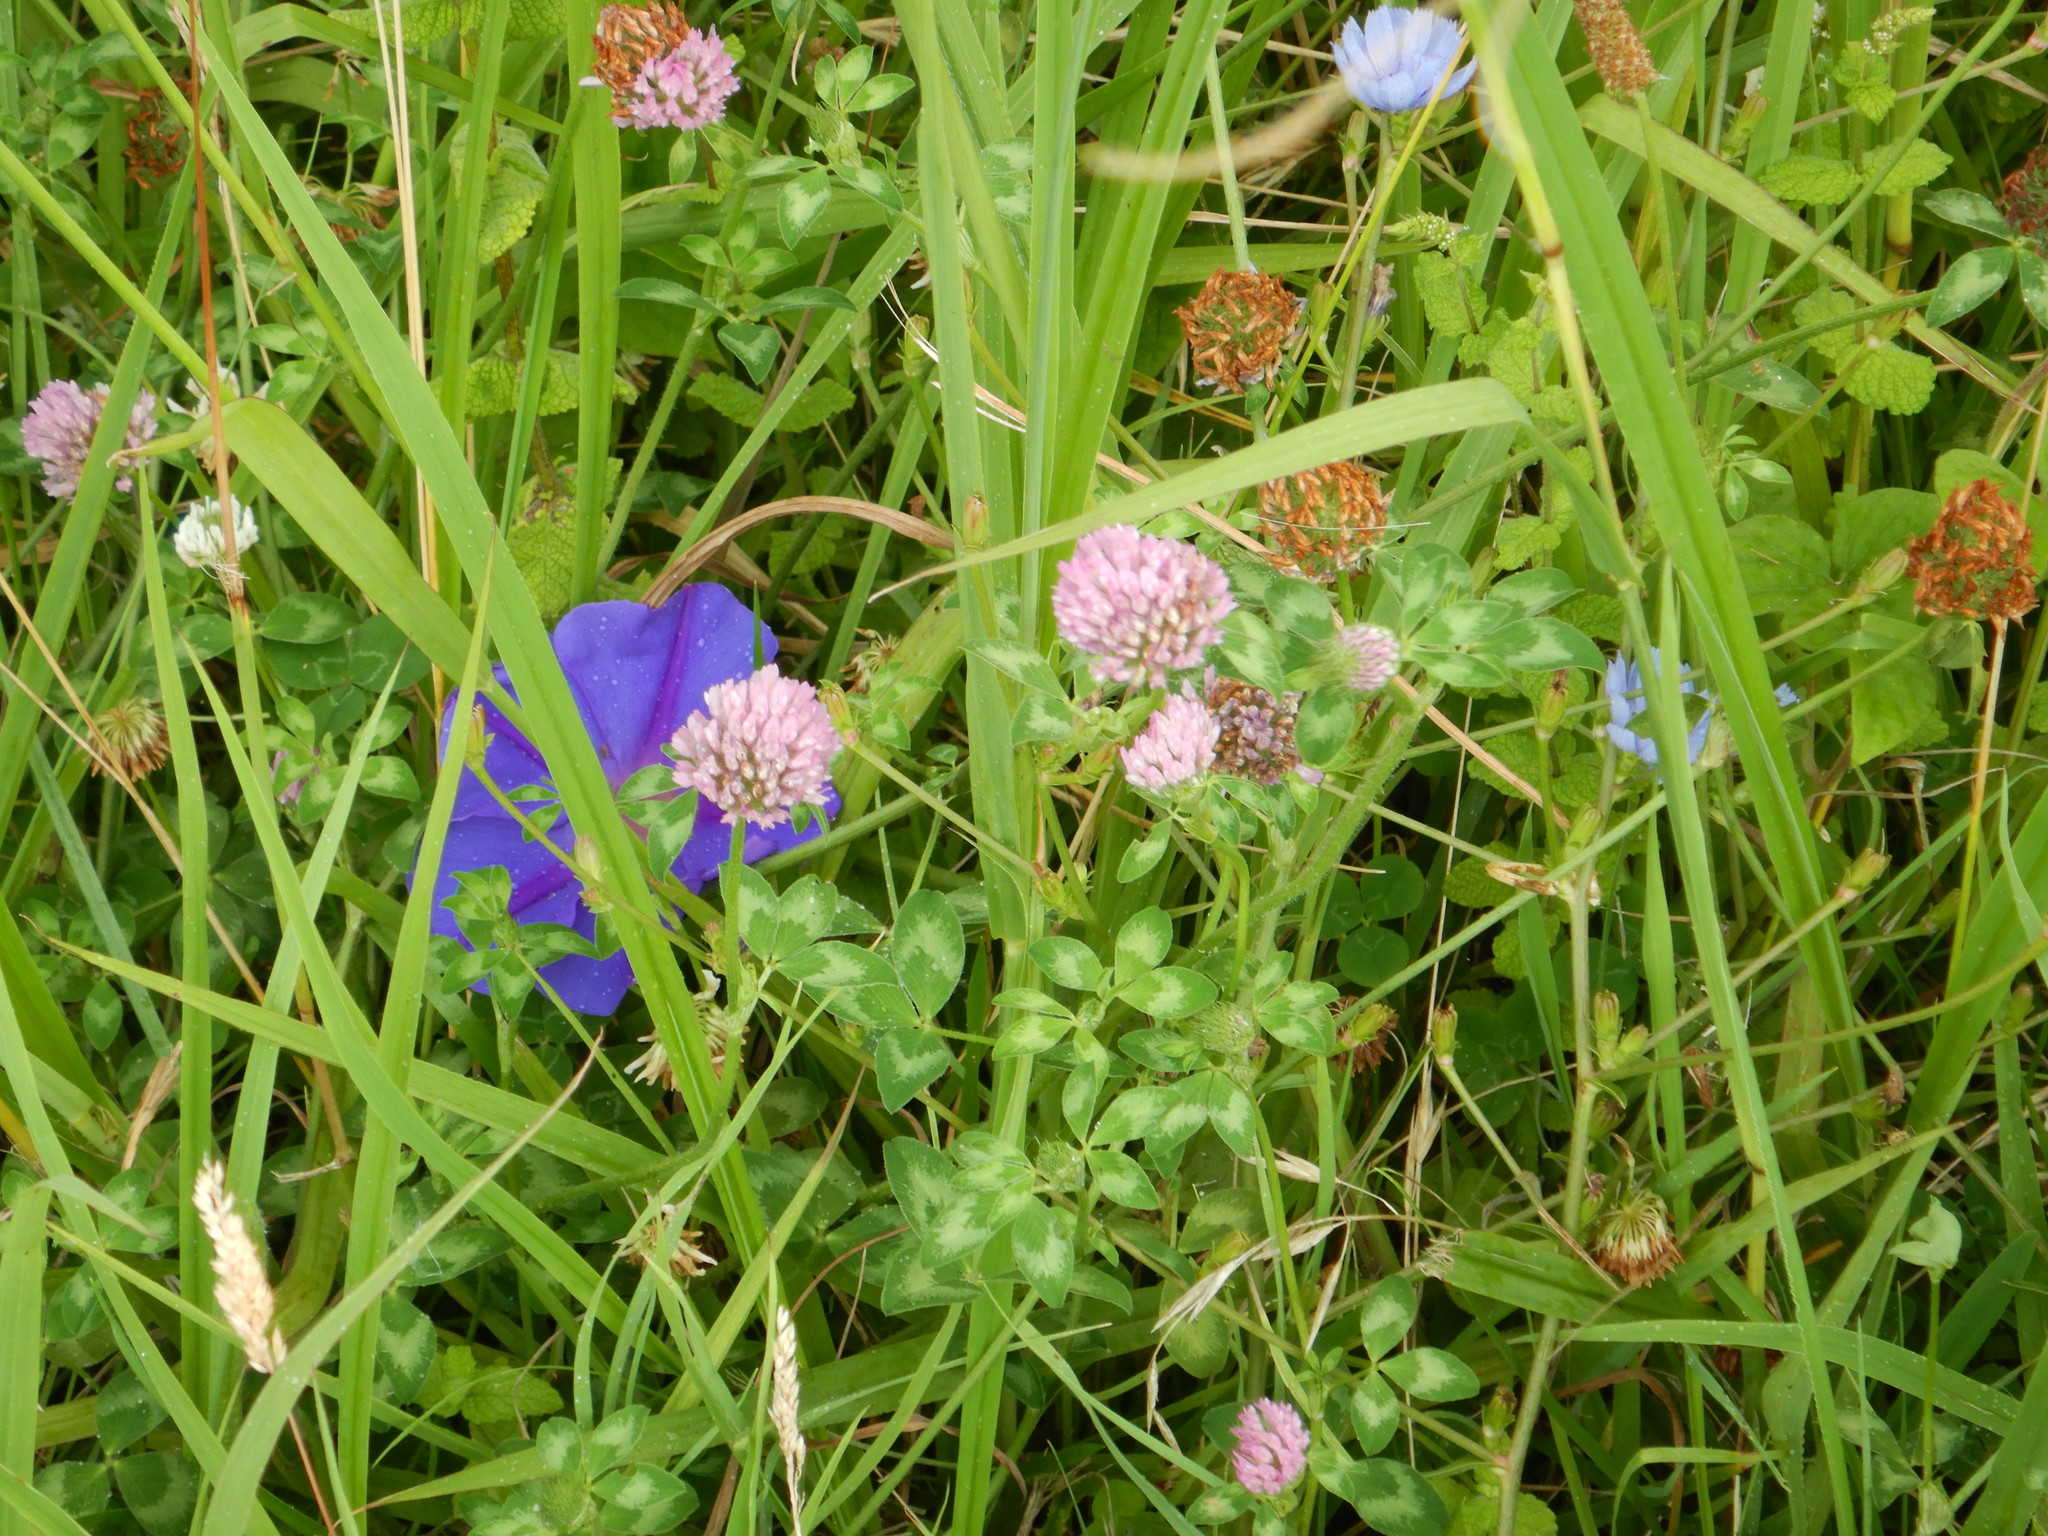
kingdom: Plantae
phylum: Tracheophyta
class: Magnoliopsida
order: Fabales
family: Fabaceae
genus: Trifolium
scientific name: Trifolium pratense
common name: Red clover
